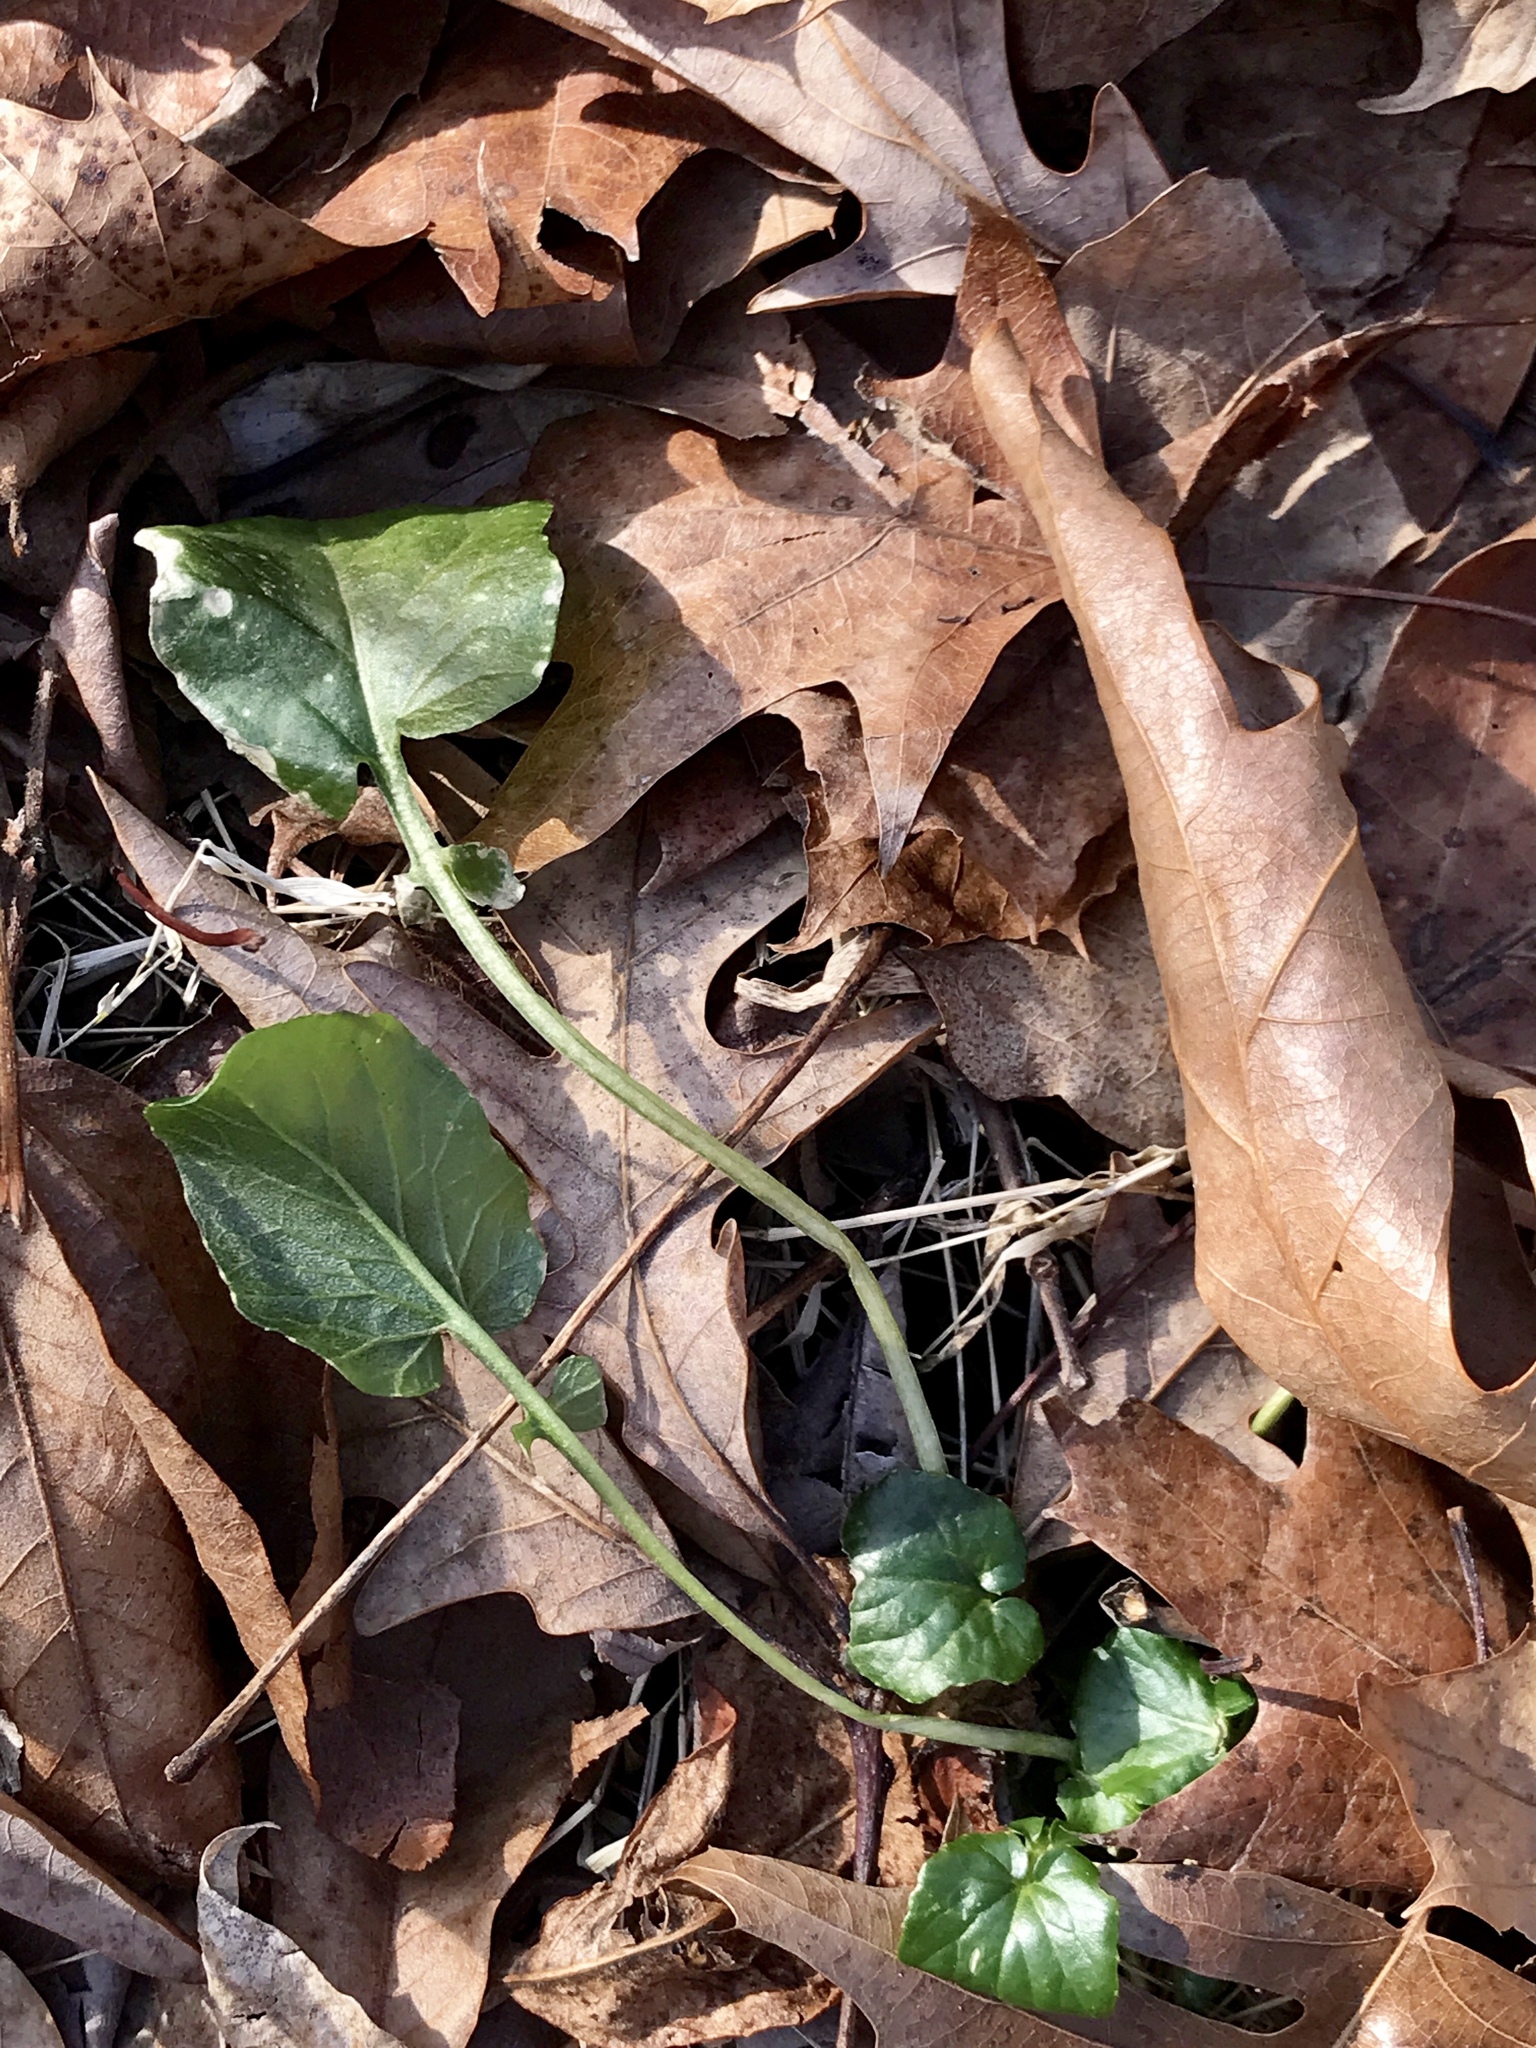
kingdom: Plantae
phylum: Tracheophyta
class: Magnoliopsida
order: Brassicales
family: Brassicaceae
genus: Barbarea
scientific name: Barbarea vulgaris
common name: Cressy-greens
